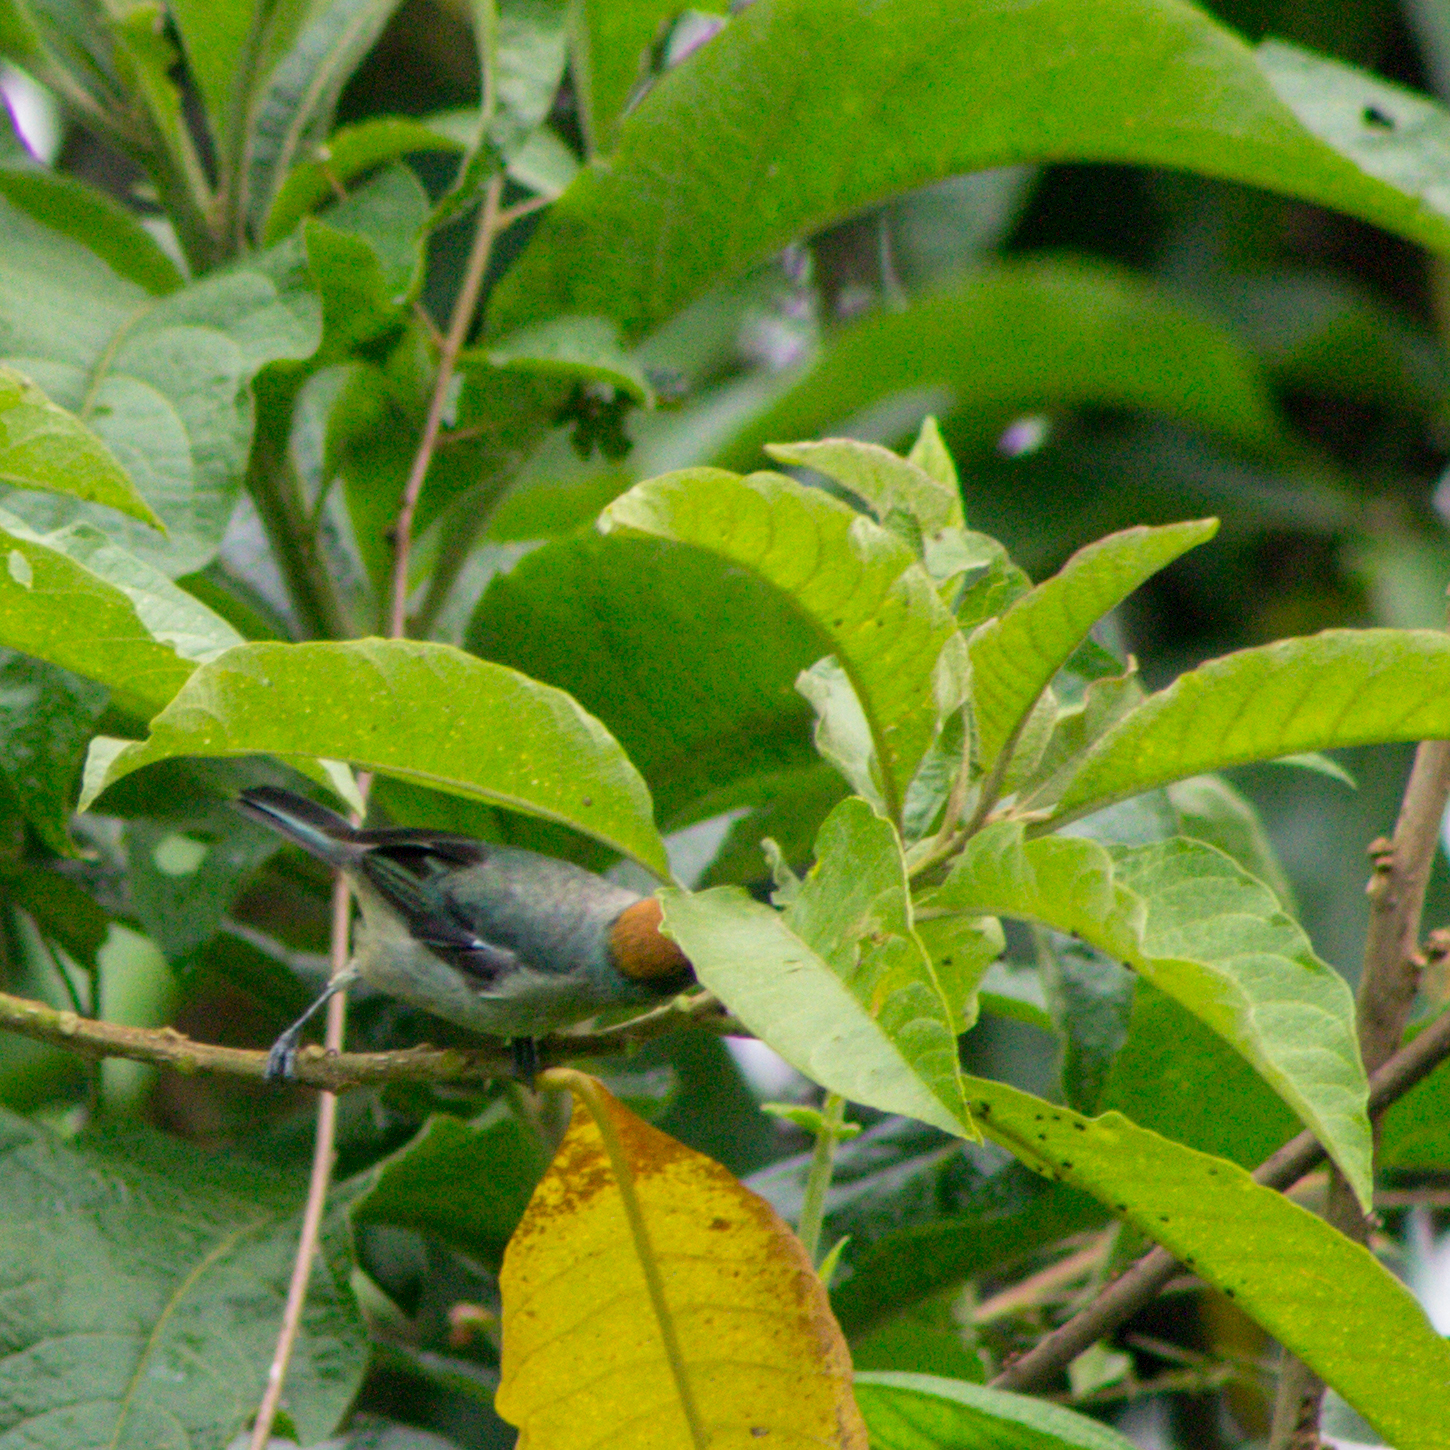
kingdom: Animalia
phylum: Chordata
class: Aves
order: Passeriformes
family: Thraupidae
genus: Stilpnia
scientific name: Stilpnia vitriolina
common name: Scrub tanager
